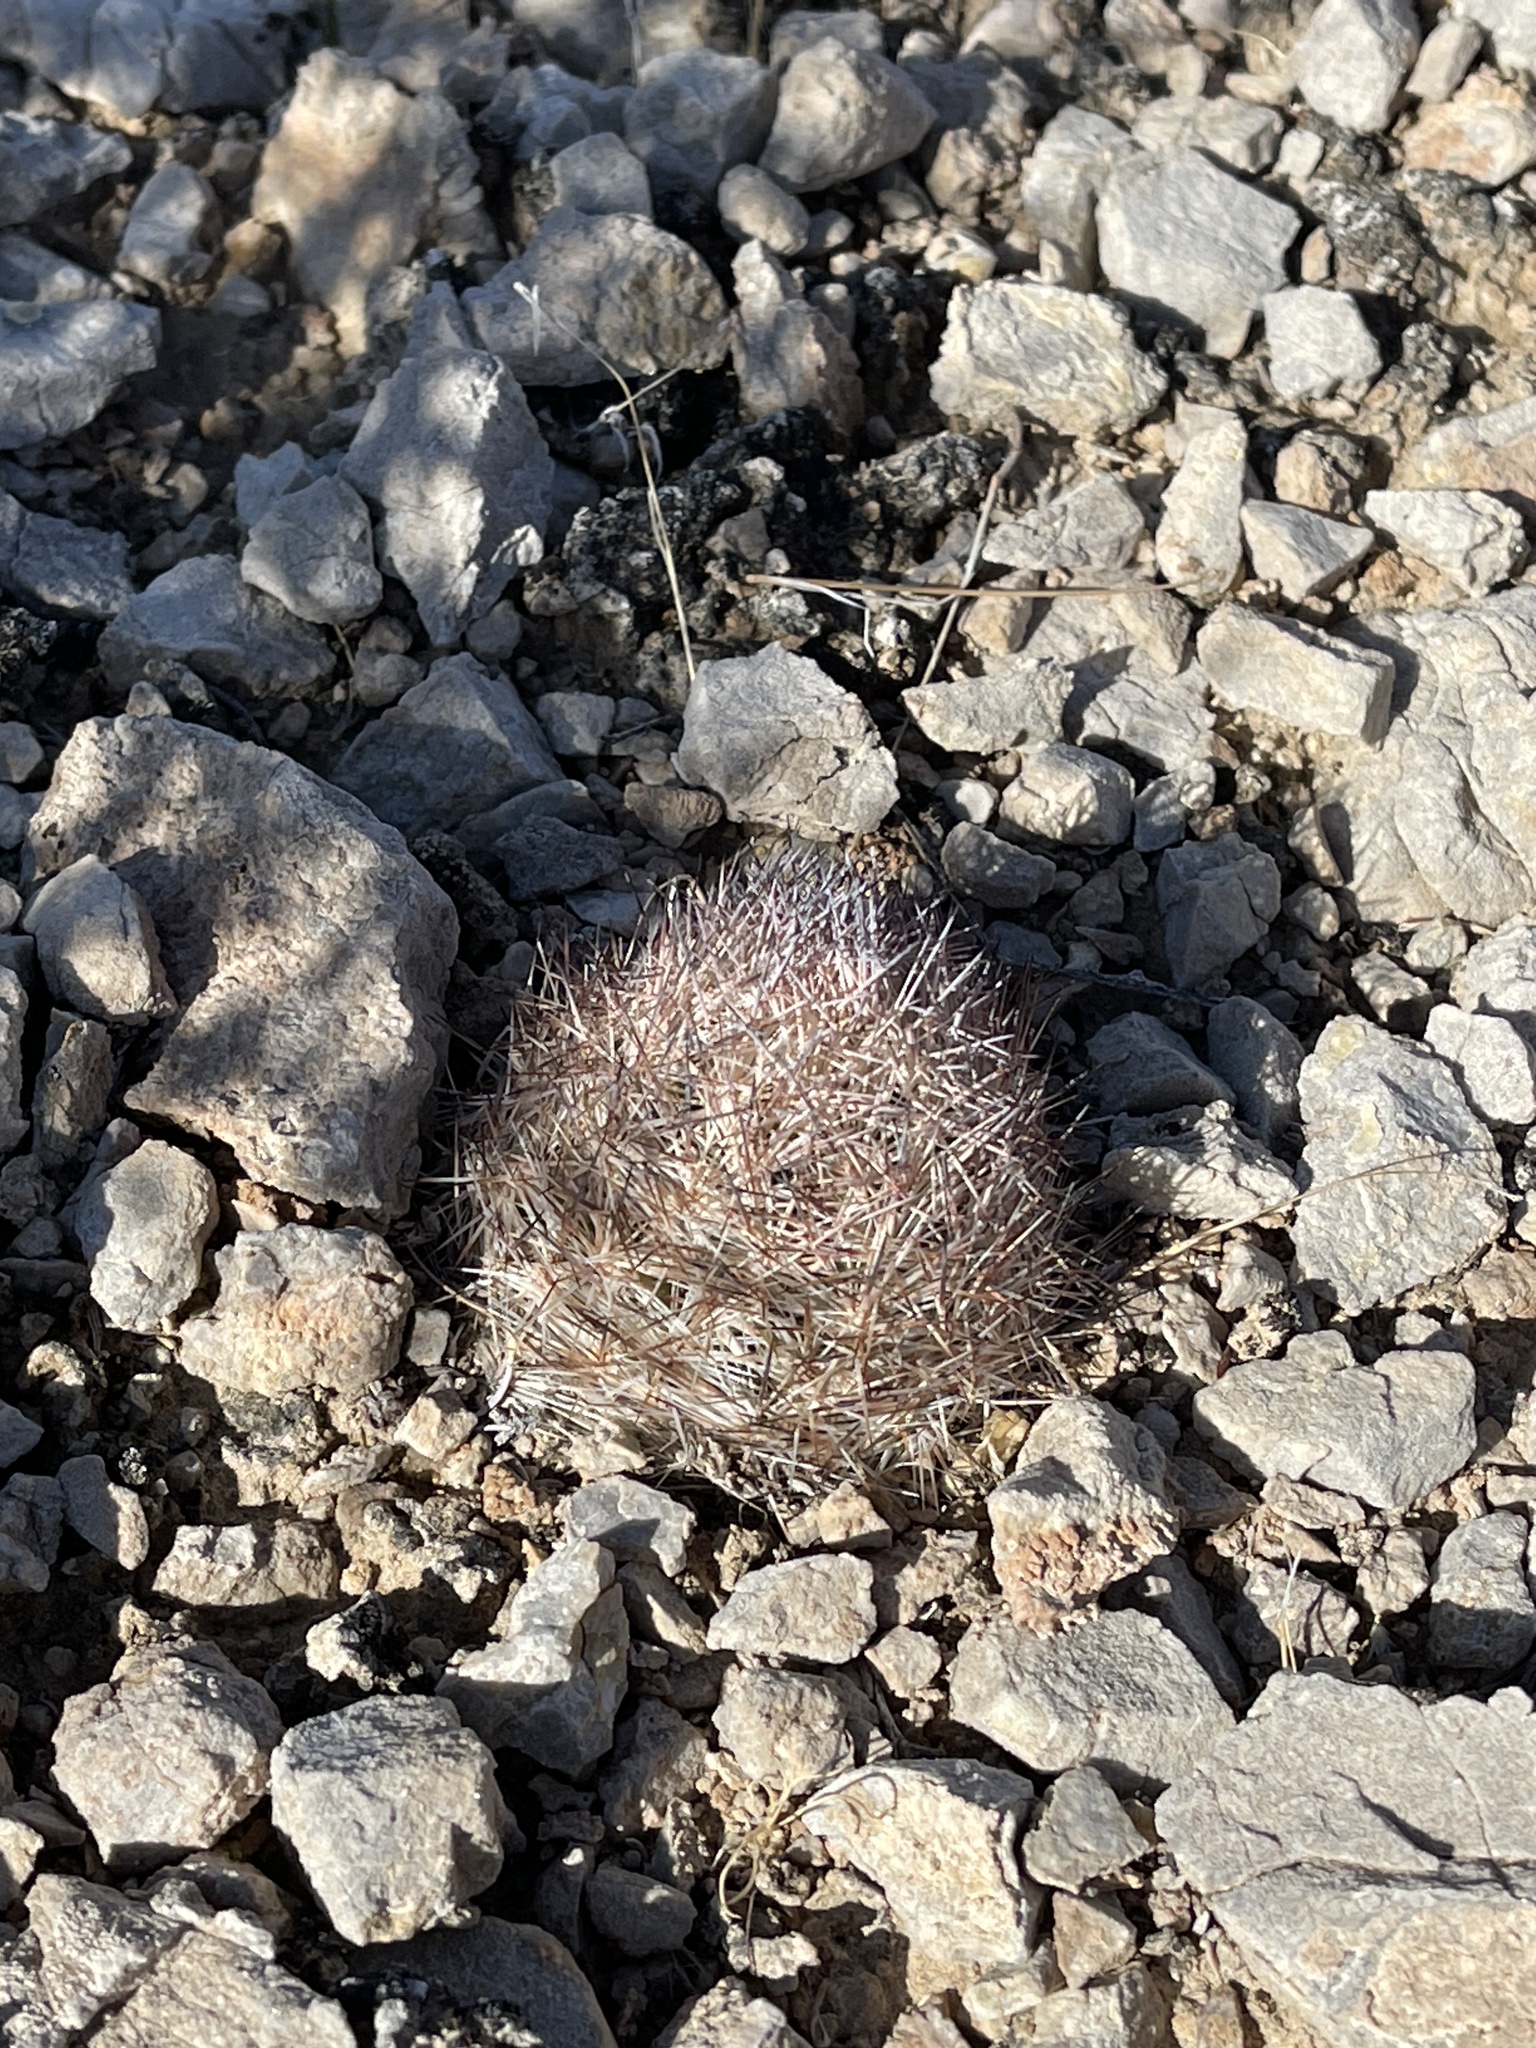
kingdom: Plantae
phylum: Tracheophyta
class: Magnoliopsida
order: Caryophyllales
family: Cactaceae
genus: Pelecyphora
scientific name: Pelecyphora dasyacantha
